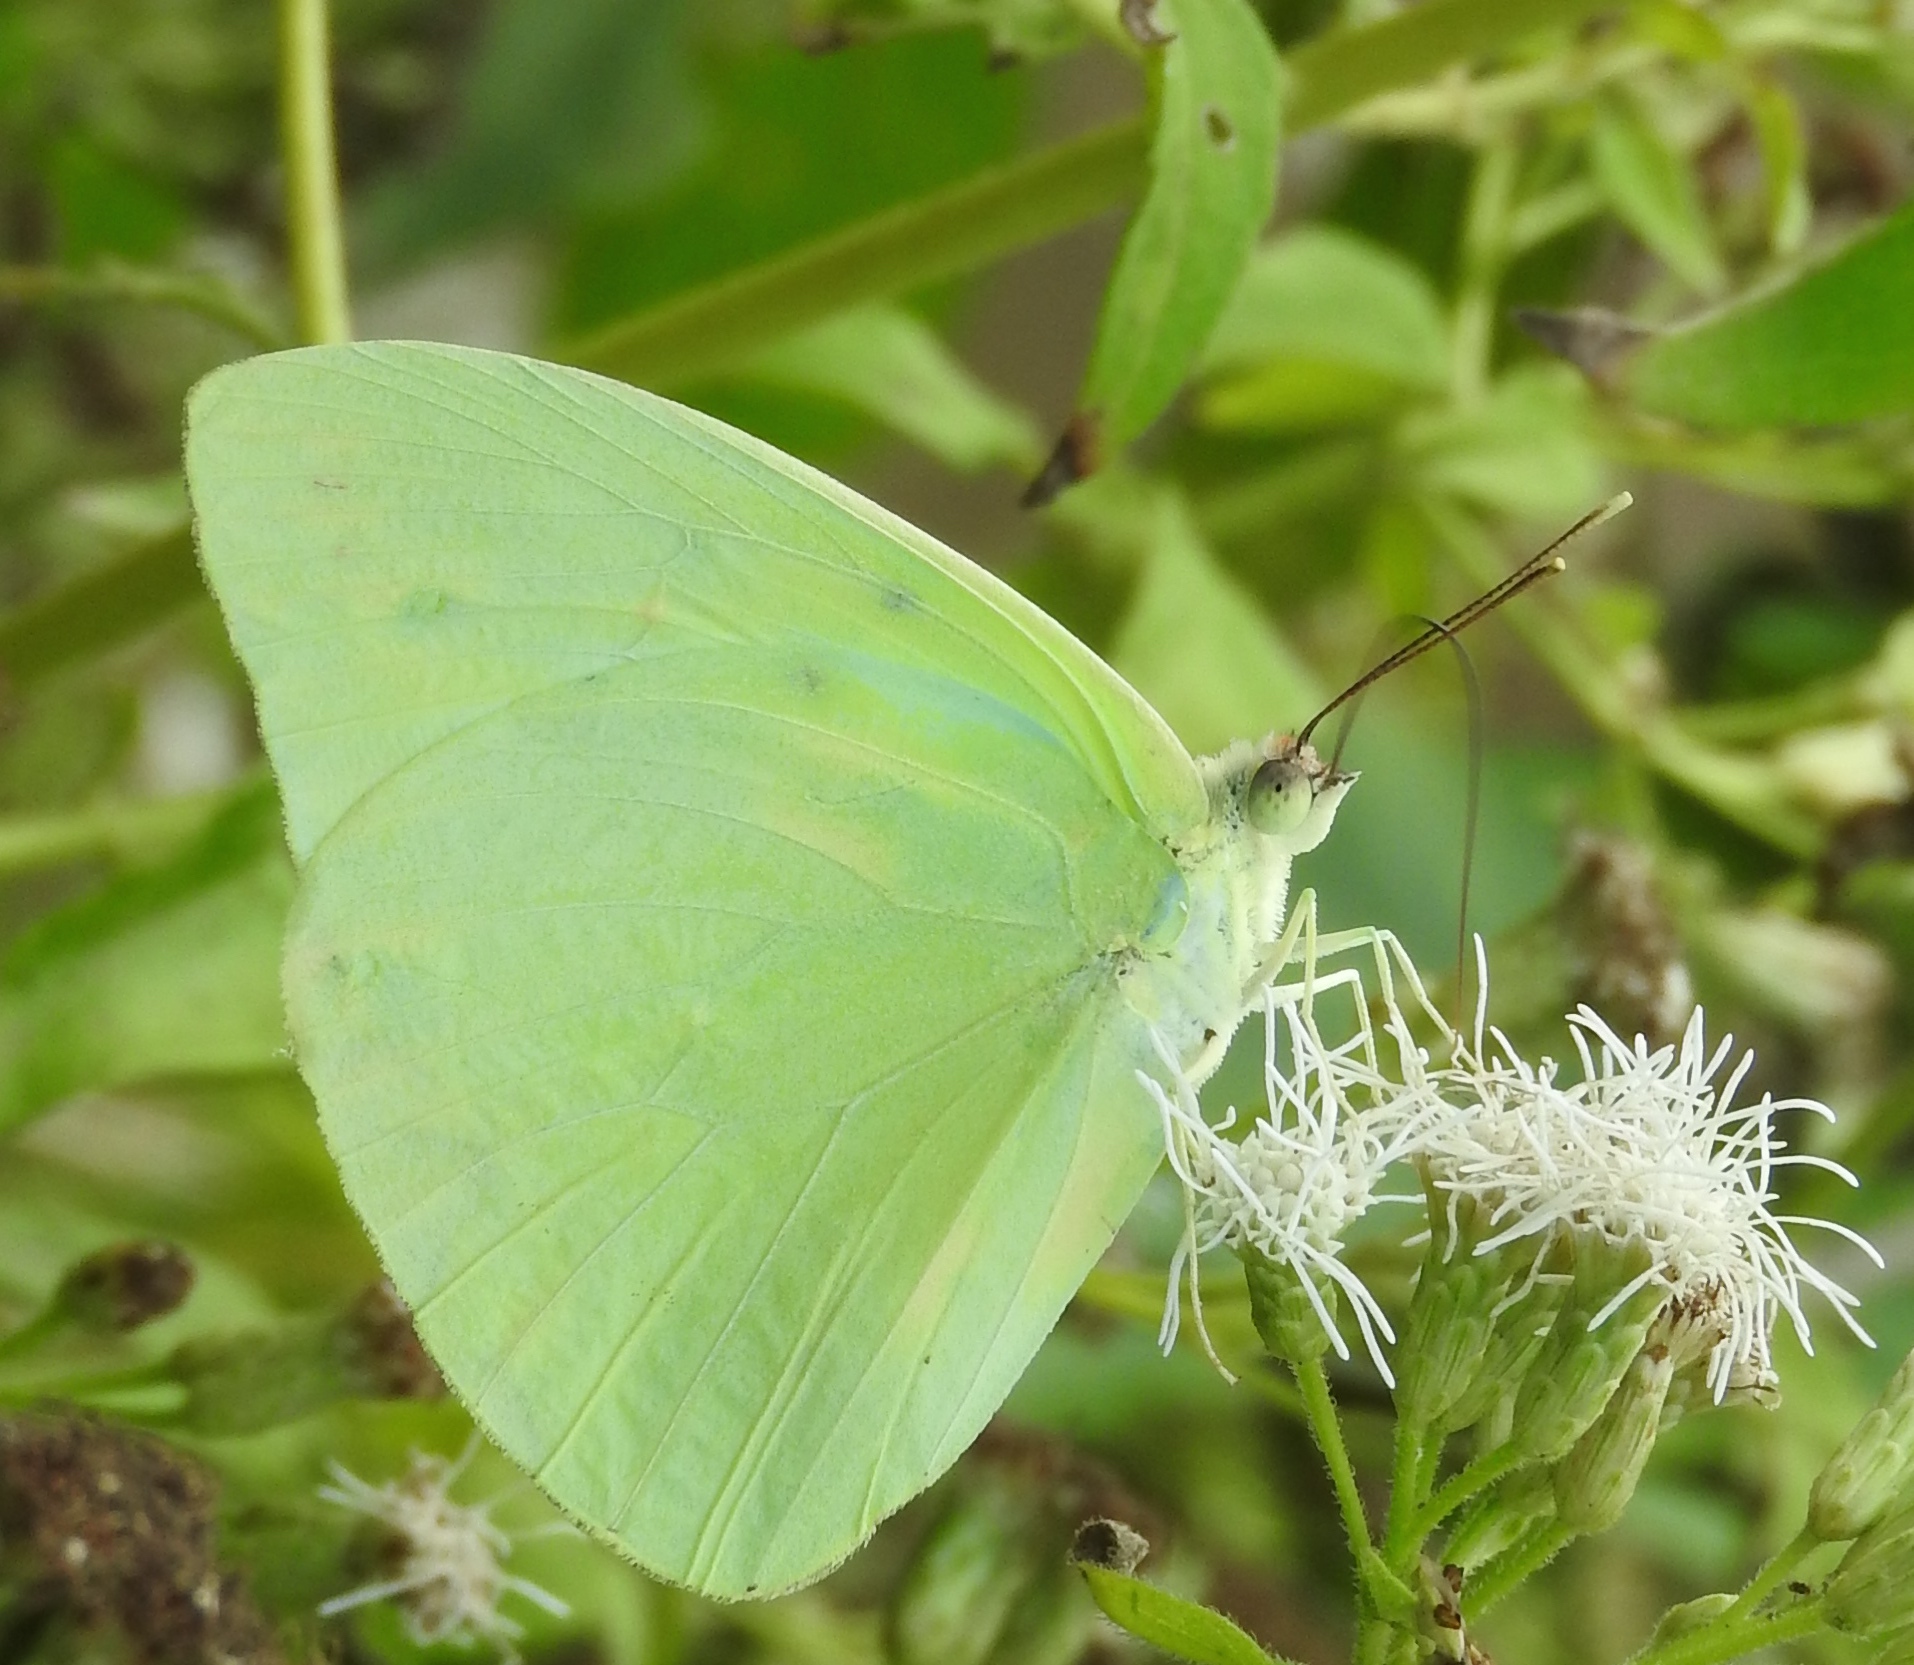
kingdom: Animalia
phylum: Arthropoda
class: Insecta
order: Lepidoptera
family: Pieridae
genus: Aphrissa
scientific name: Aphrissa statira
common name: Statira sulphur
